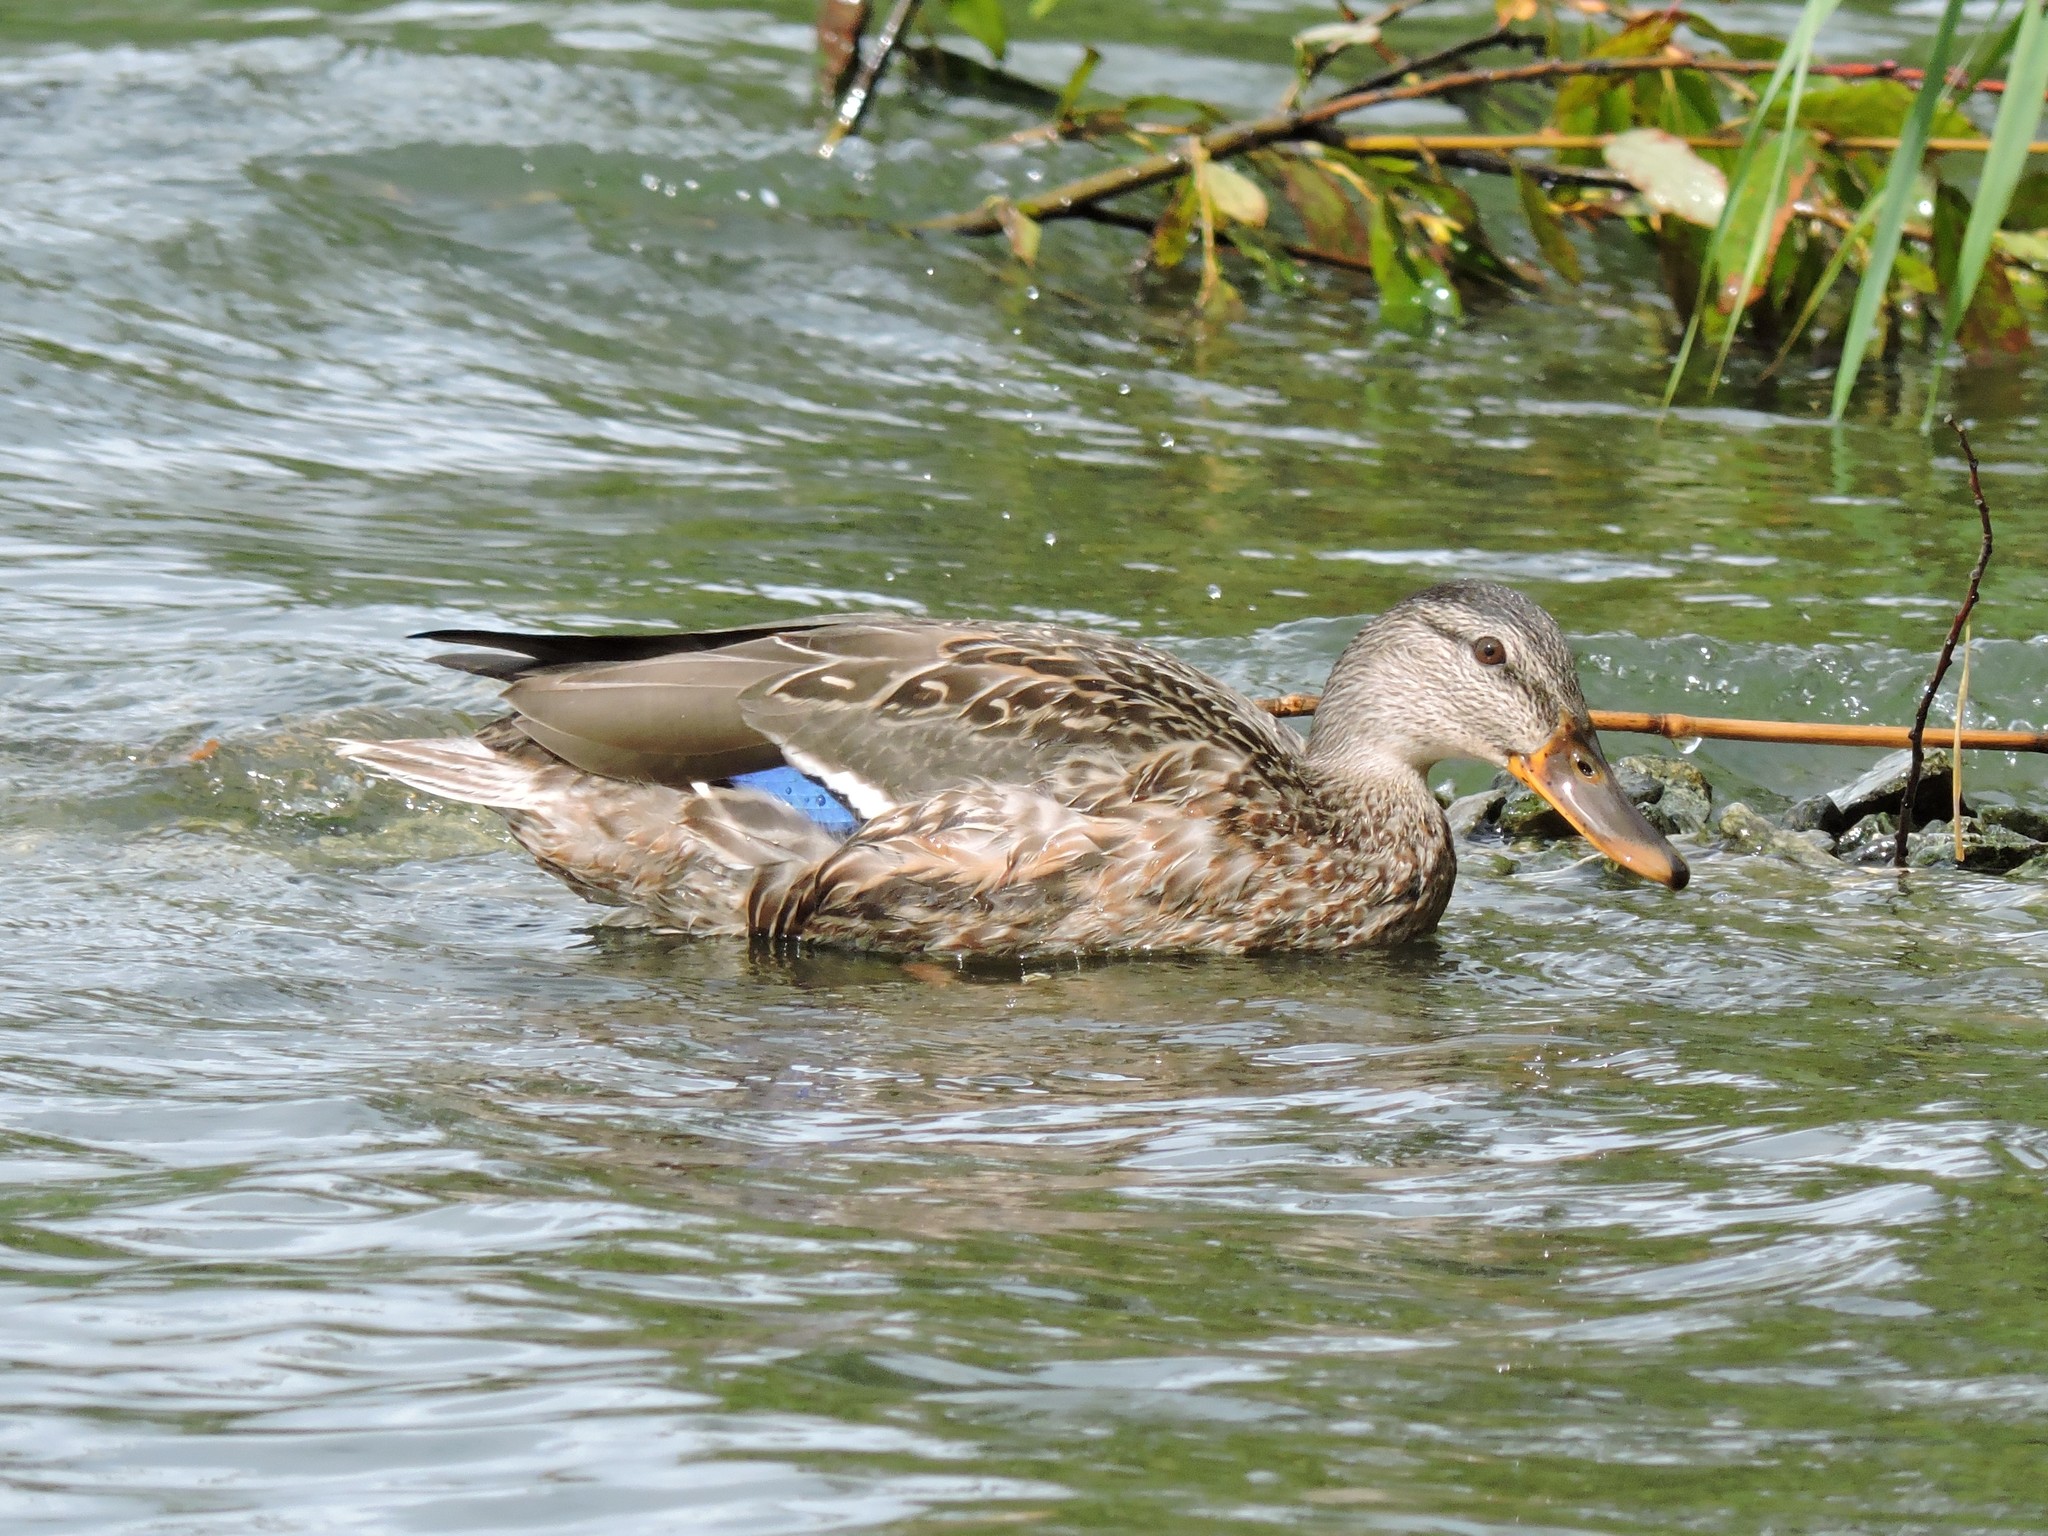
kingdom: Animalia
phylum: Chordata
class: Aves
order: Anseriformes
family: Anatidae
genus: Anas
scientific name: Anas platyrhynchos
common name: Mallard
